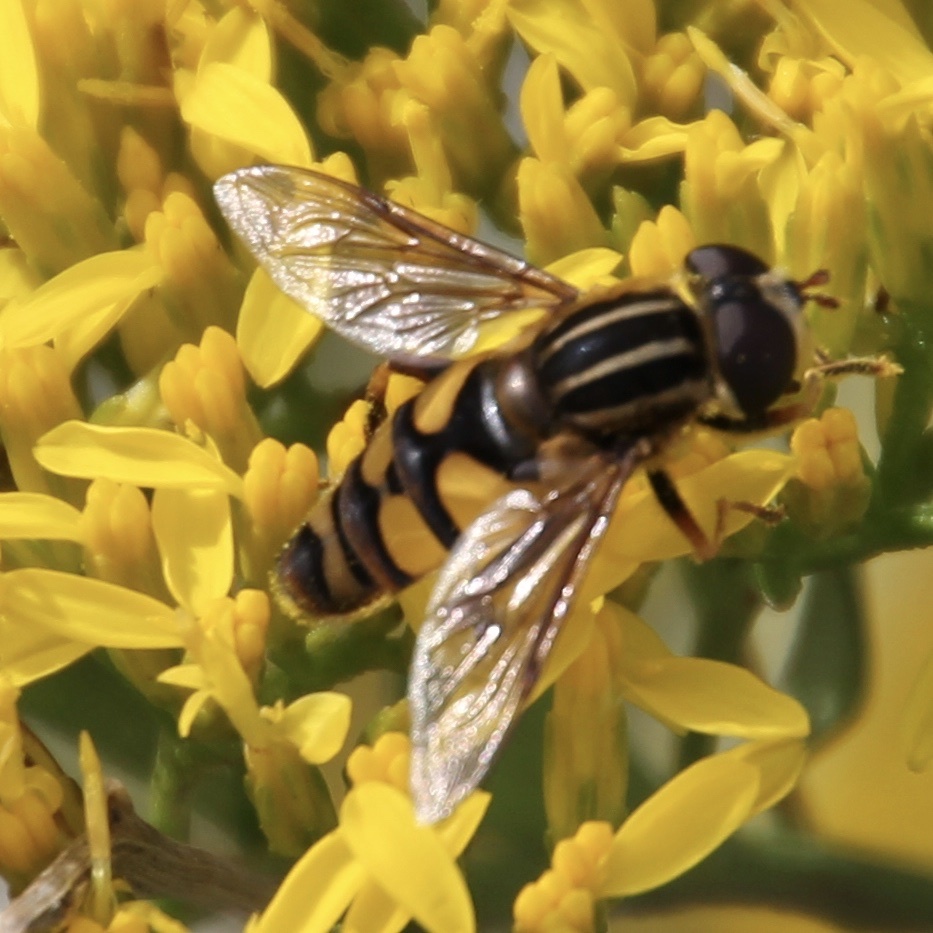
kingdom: Animalia
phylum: Arthropoda
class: Insecta
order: Diptera
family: Syrphidae
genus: Helophilus
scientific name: Helophilus fasciatus
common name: Narrow-headed marsh fly
